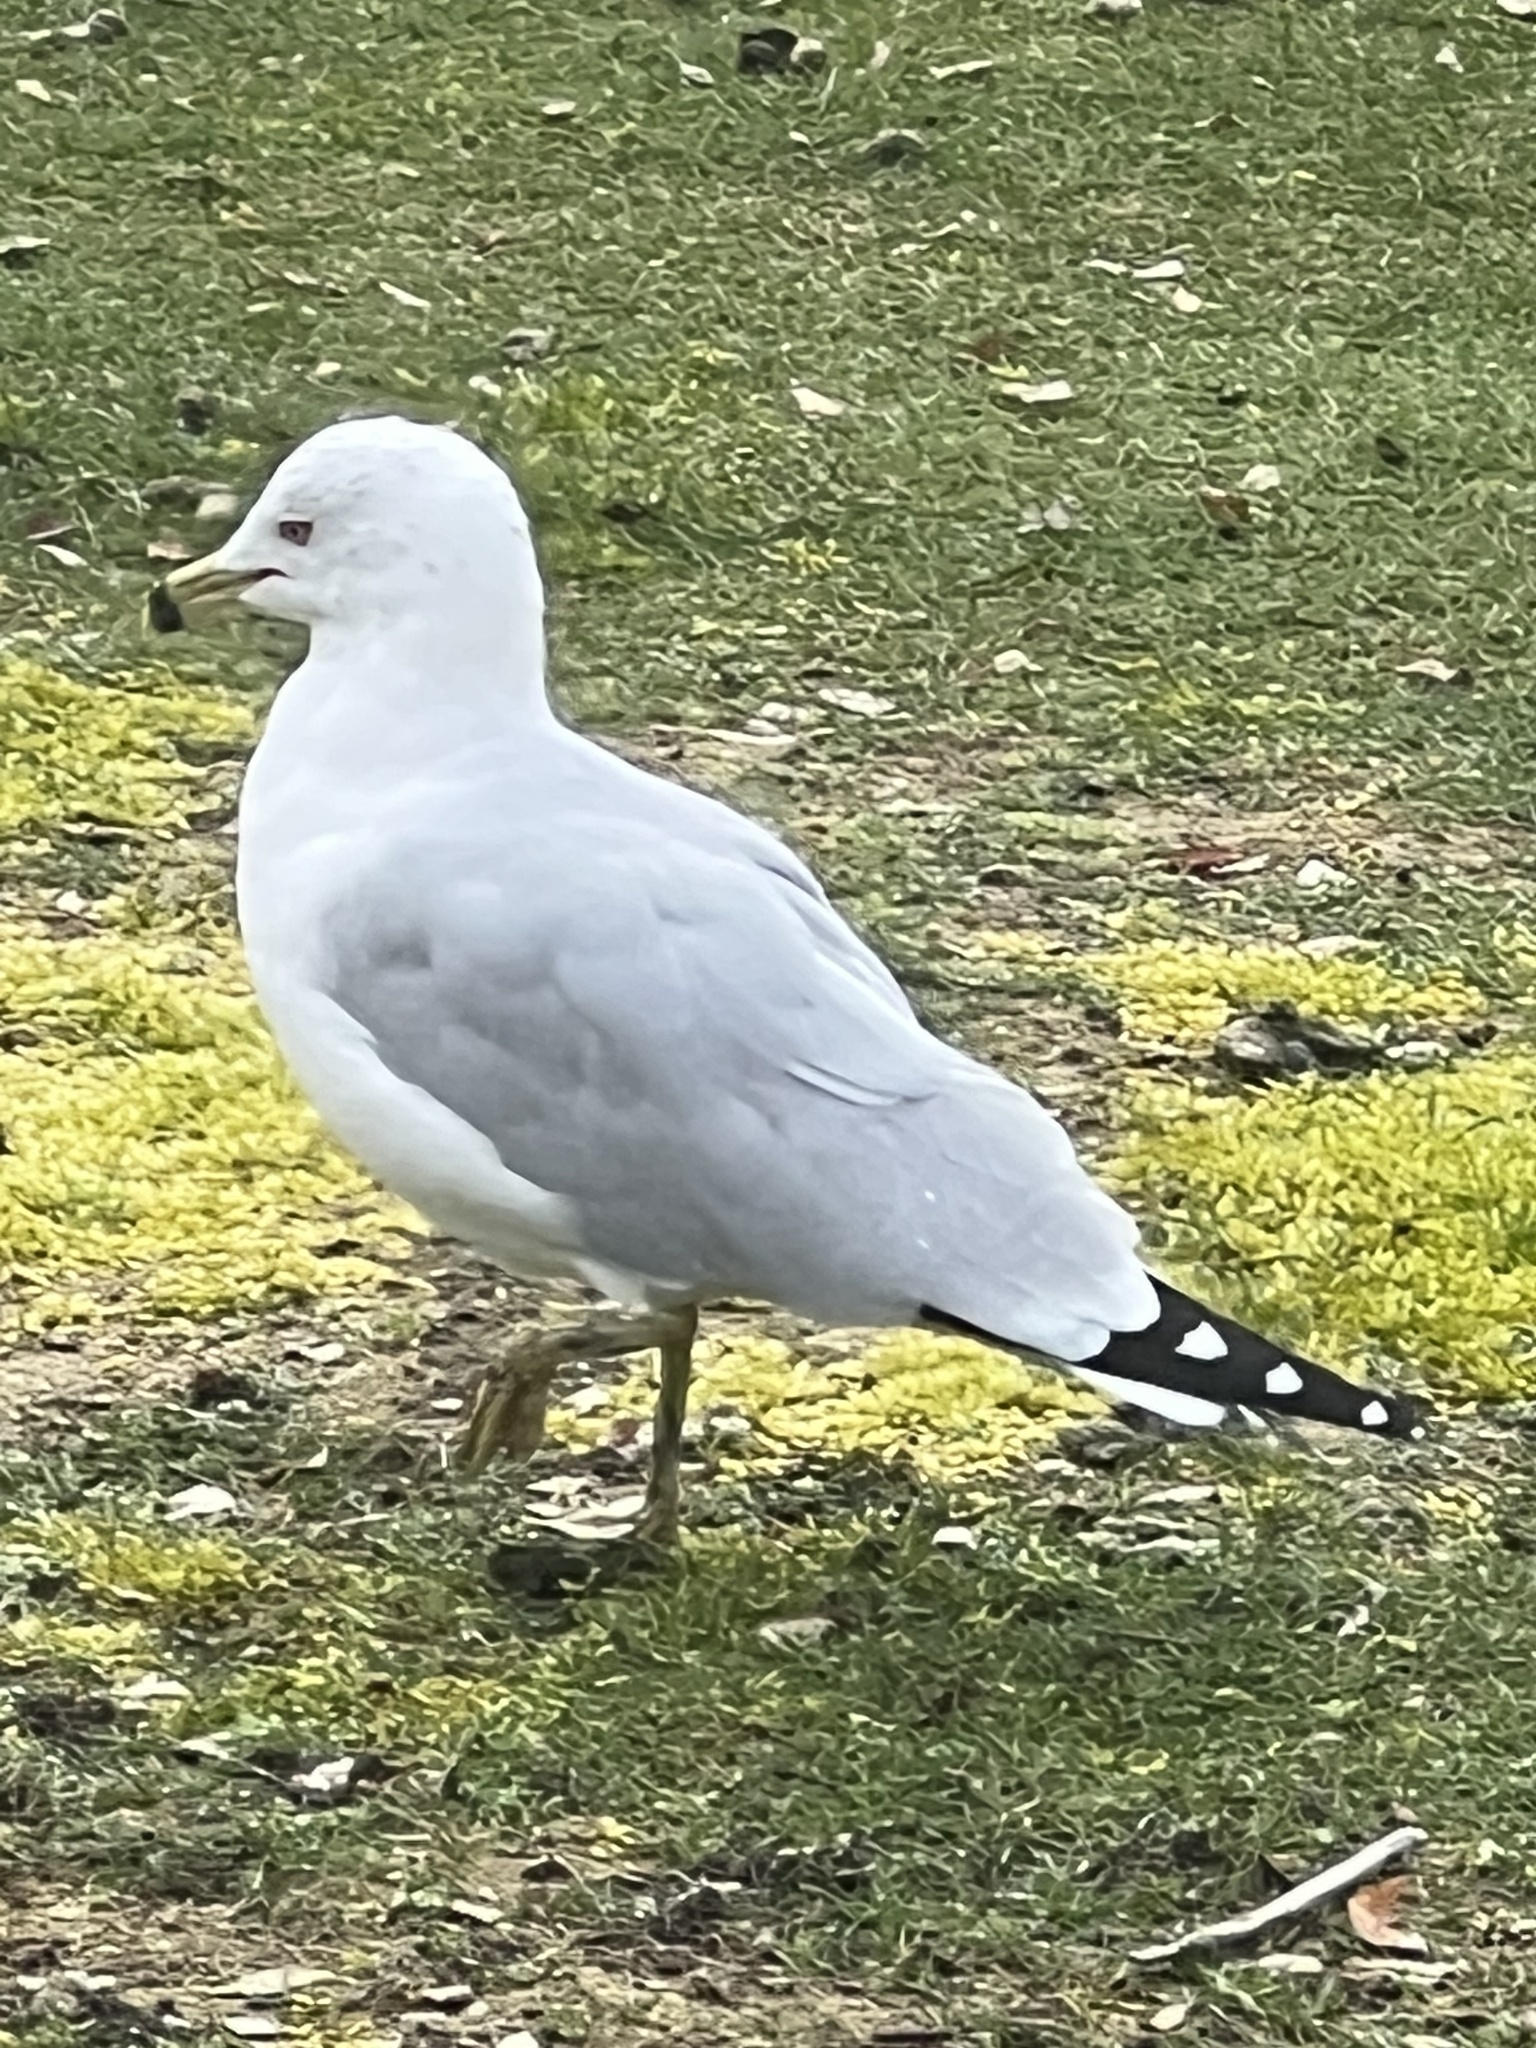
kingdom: Animalia
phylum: Chordata
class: Aves
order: Charadriiformes
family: Laridae
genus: Larus
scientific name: Larus delawarensis
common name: Ring-billed gull
